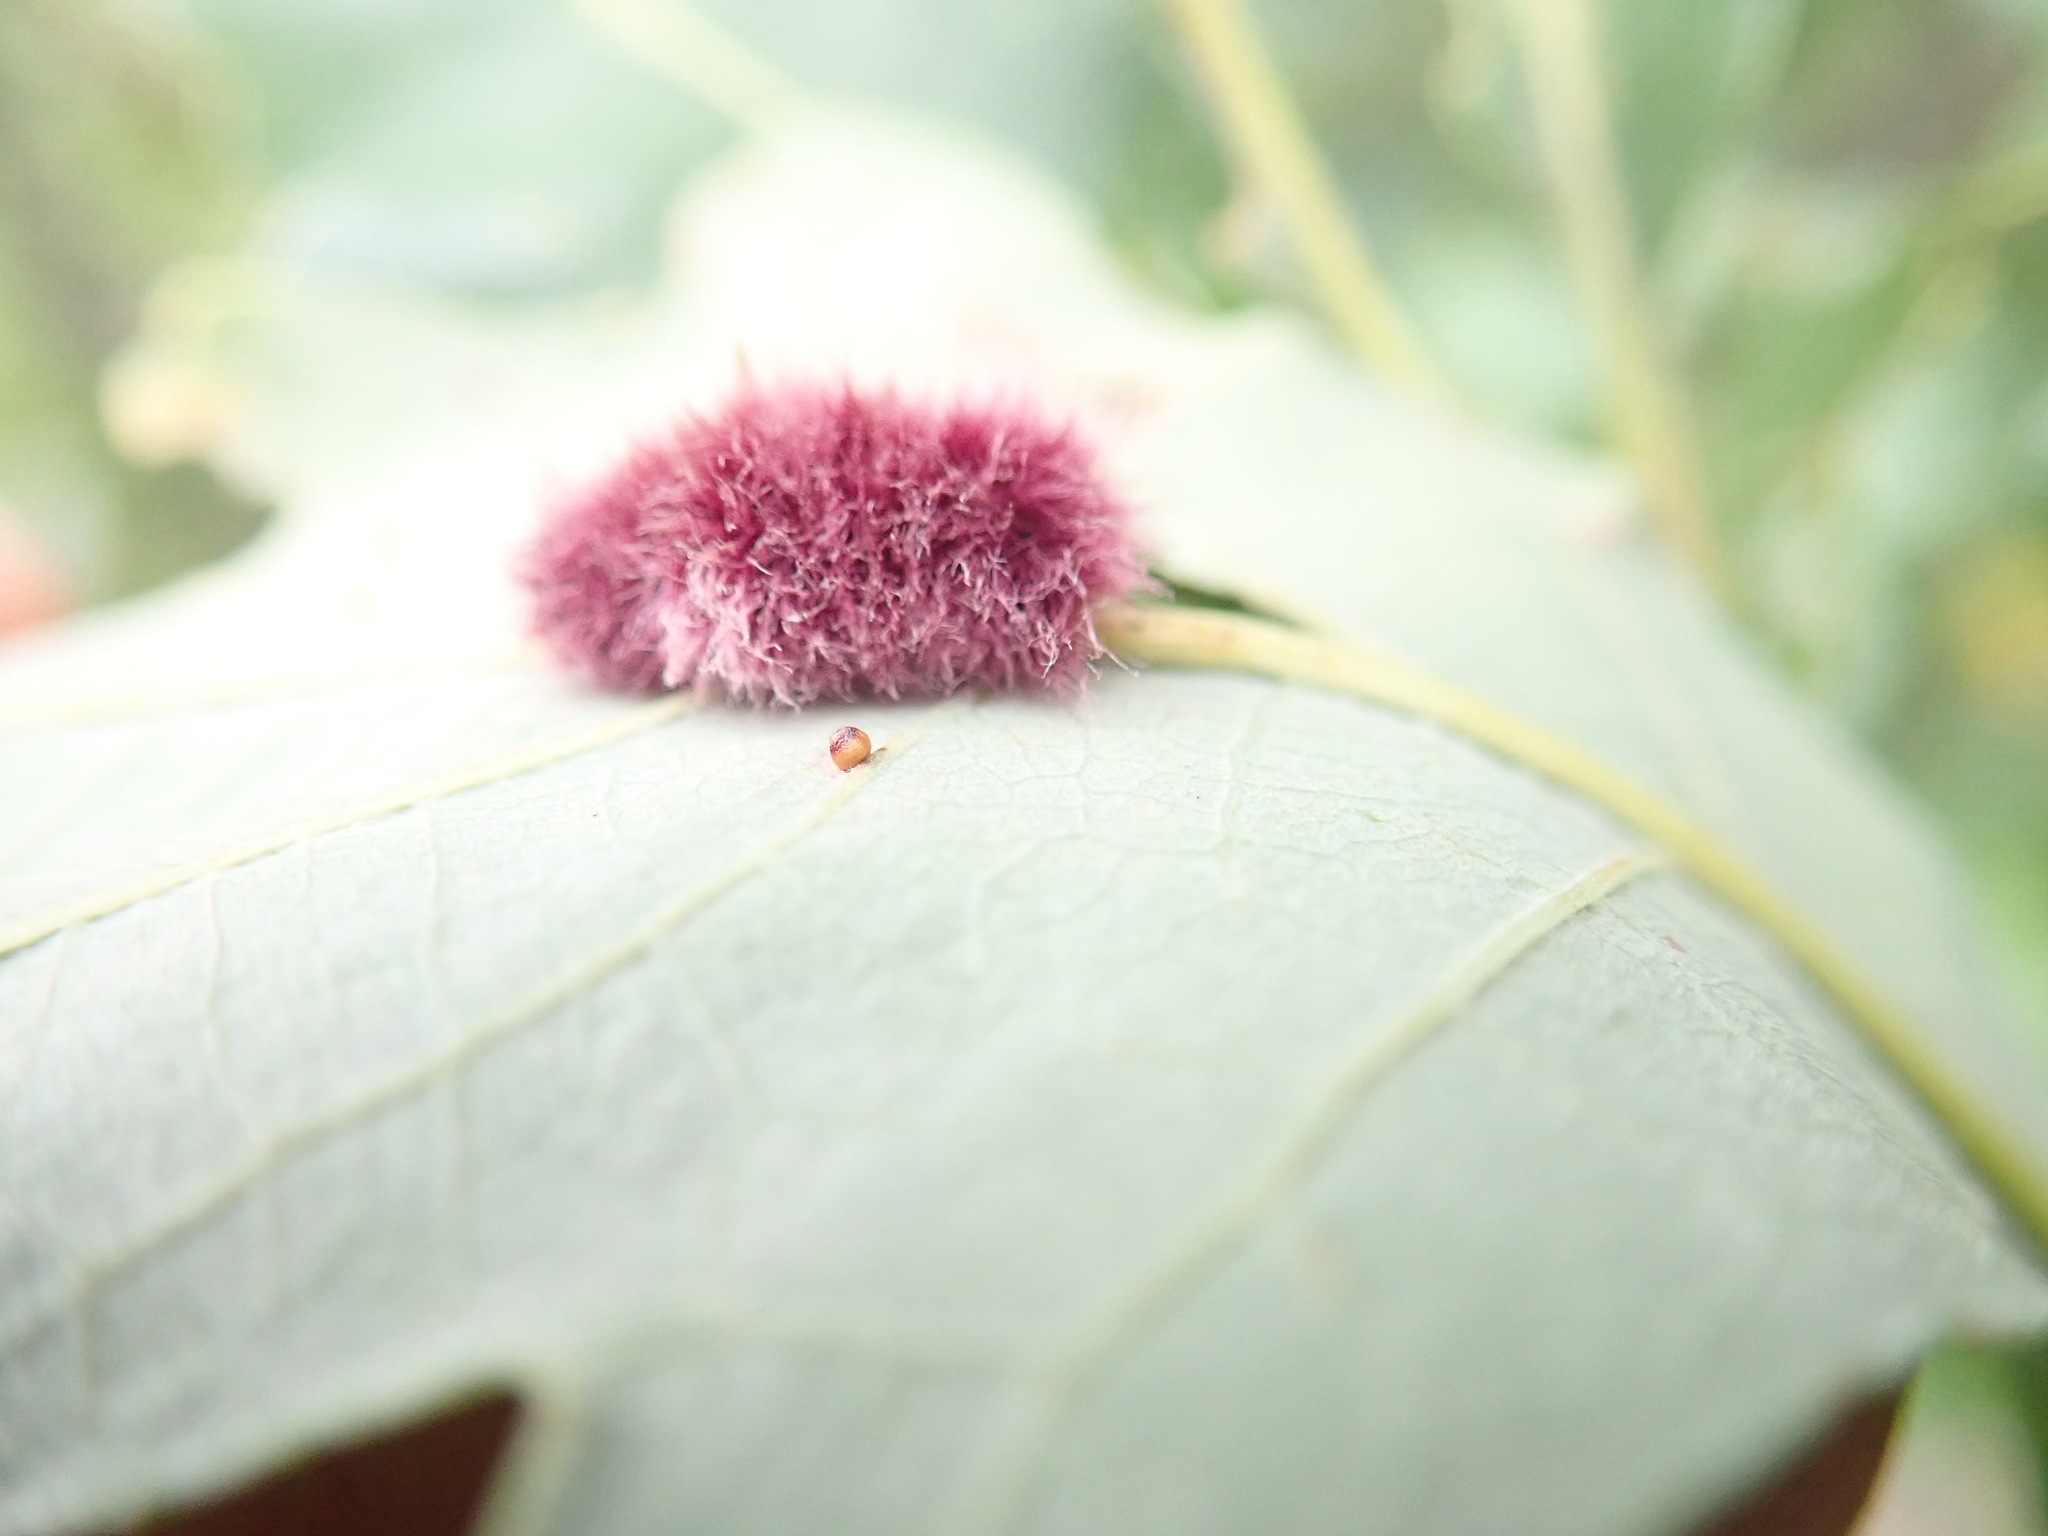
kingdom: Animalia
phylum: Arthropoda
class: Insecta
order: Hymenoptera
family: Cynipidae
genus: Andricus
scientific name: Andricus Druon ignotum
